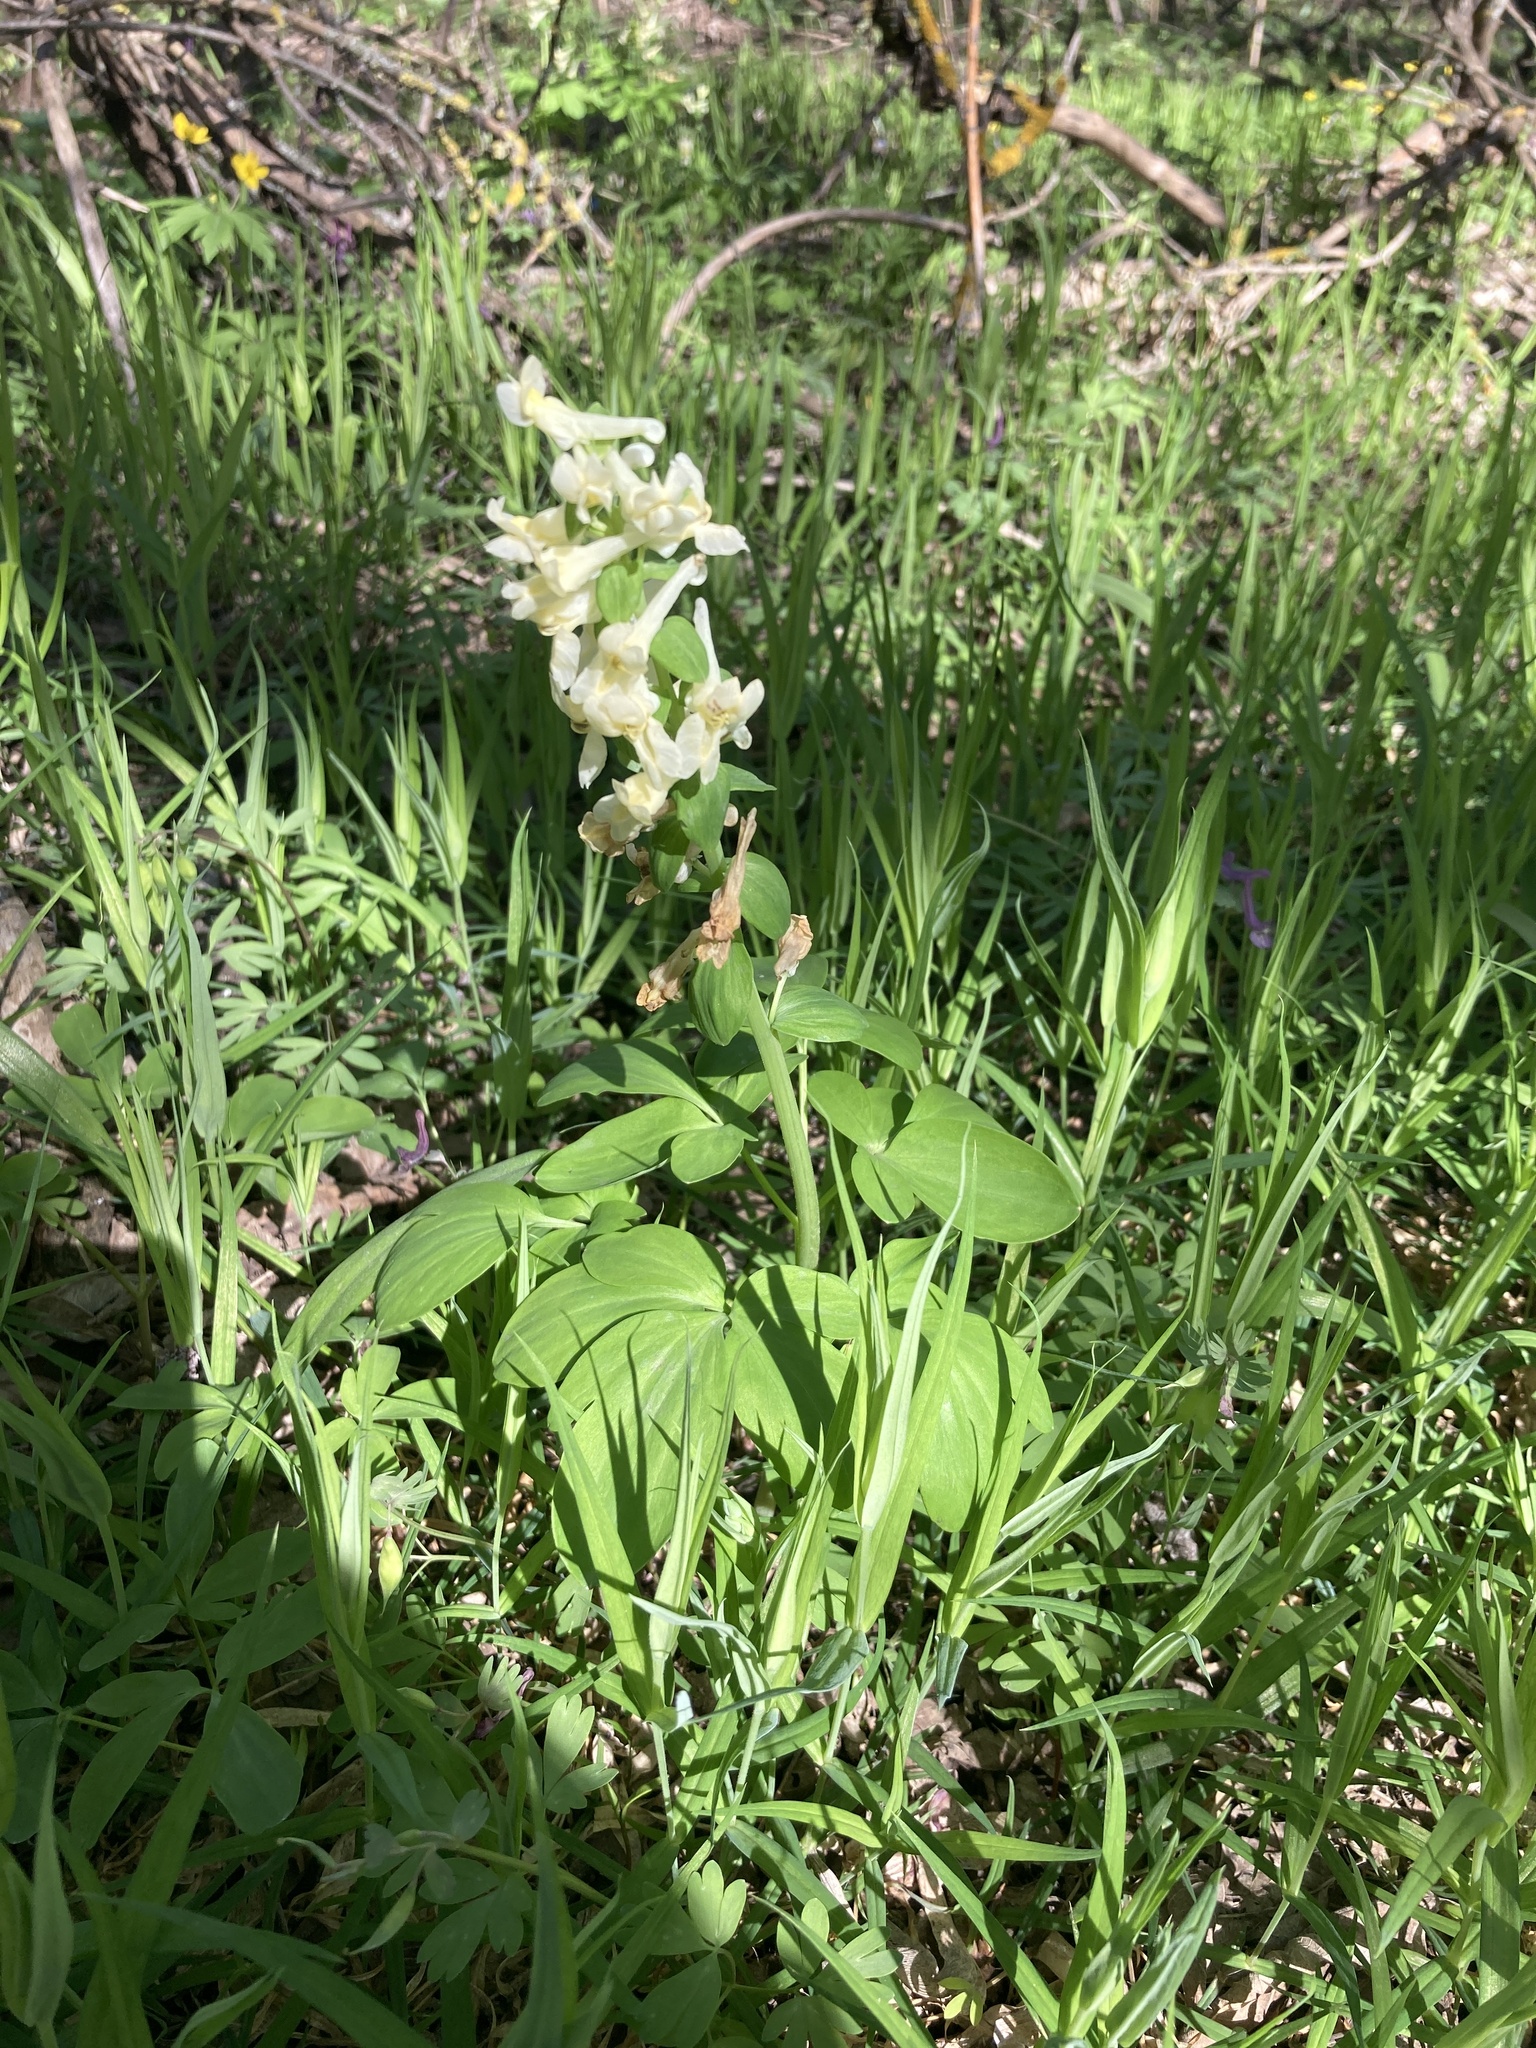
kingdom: Plantae
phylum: Tracheophyta
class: Magnoliopsida
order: Ranunculales
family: Papaveraceae
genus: Corydalis
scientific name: Corydalis cava
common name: Hollowroot
